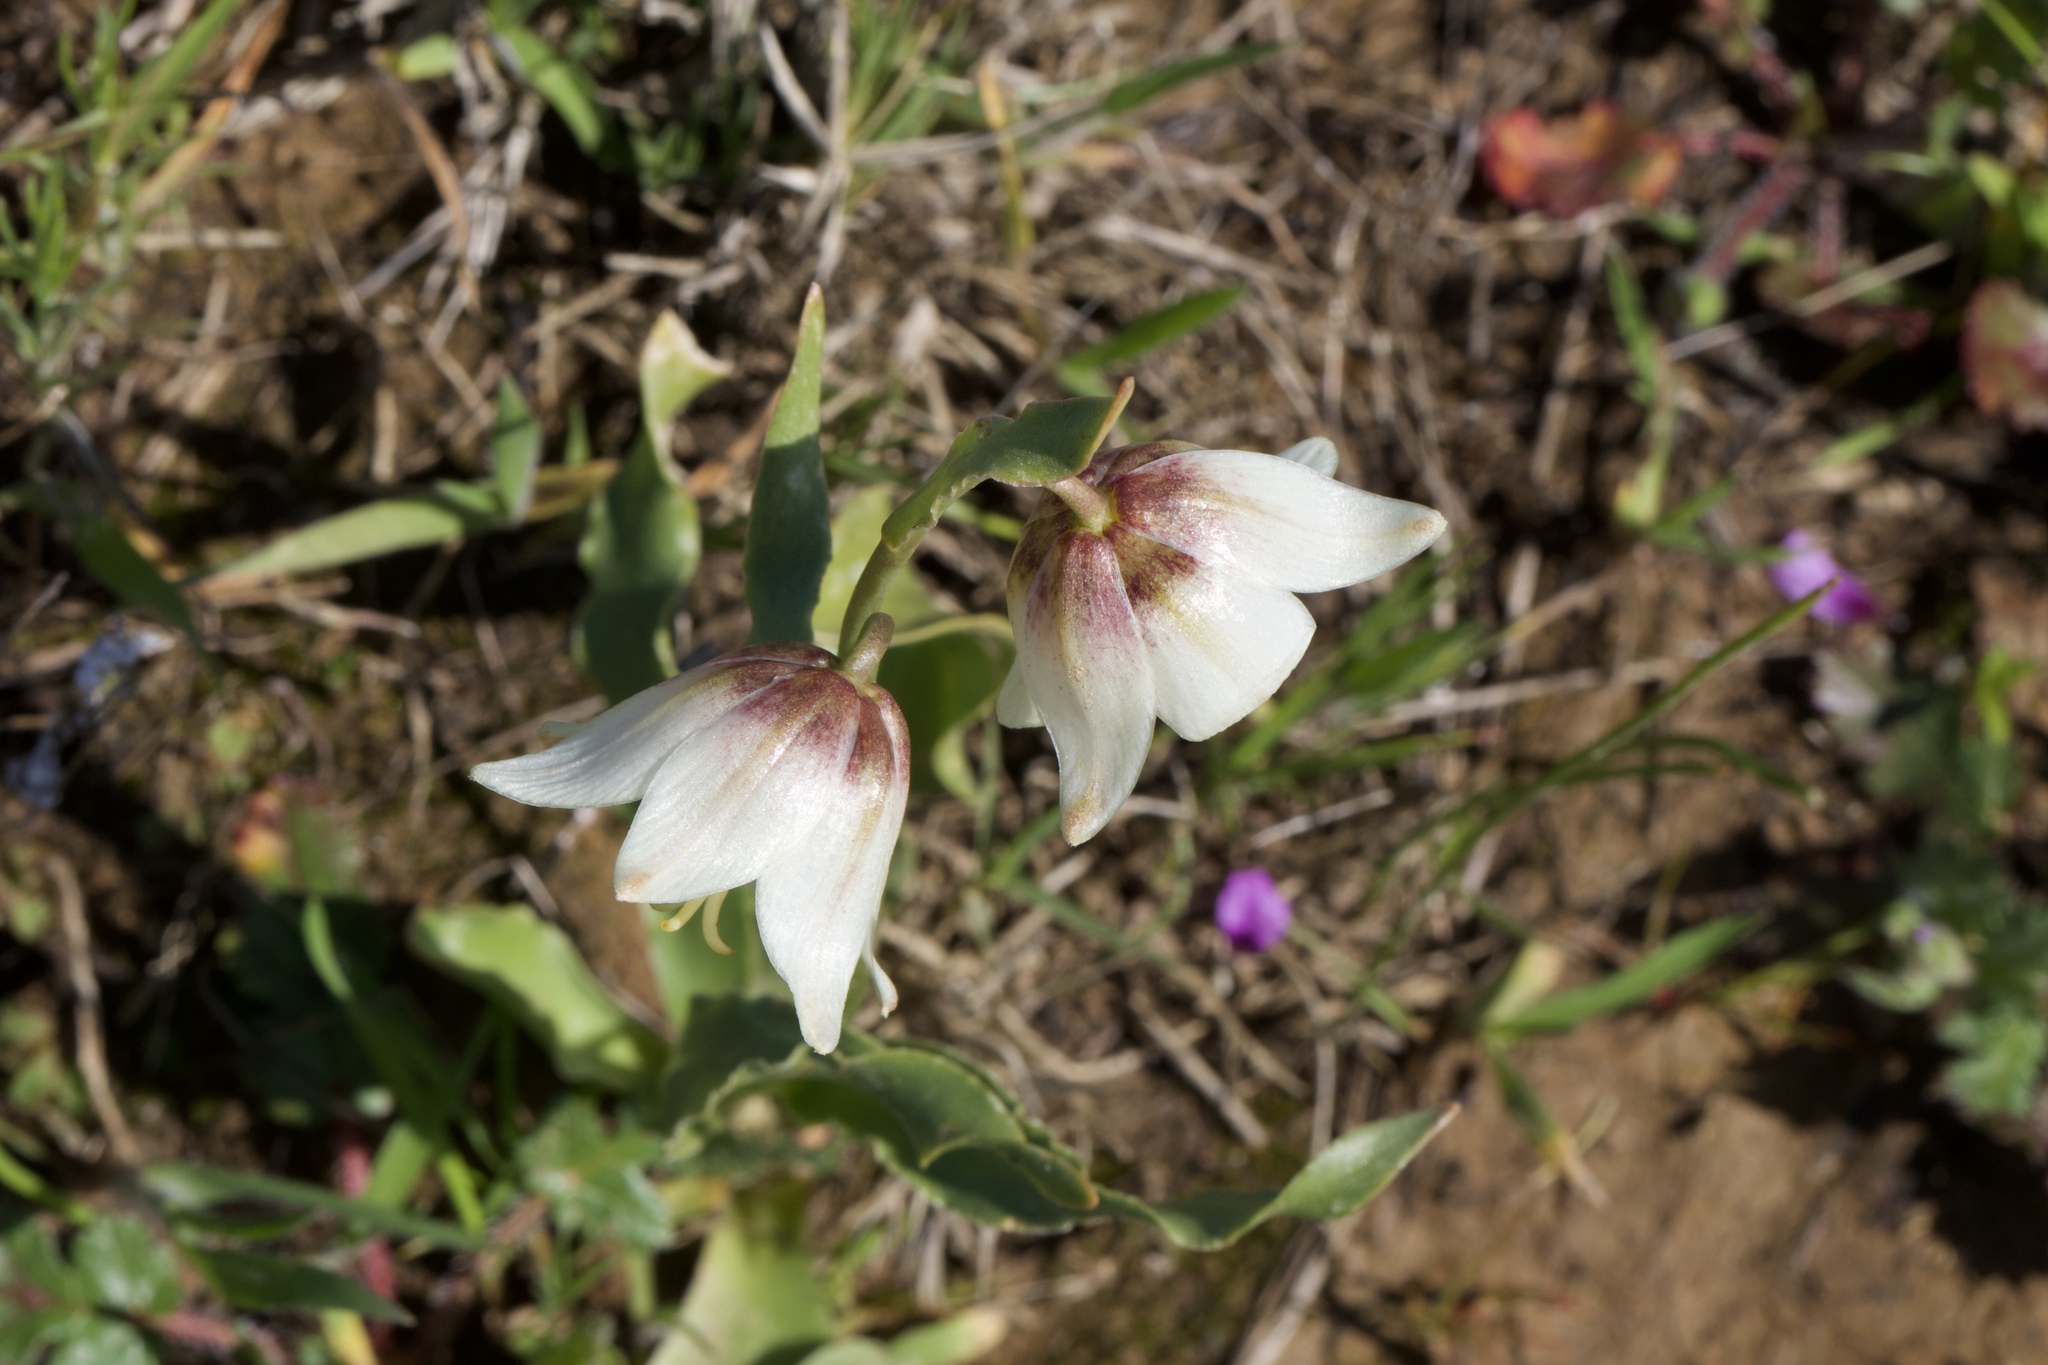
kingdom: Plantae
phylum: Tracheophyta
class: Liliopsida
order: Liliales
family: Liliaceae
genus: Fritillaria
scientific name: Fritillaria liliacea
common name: Fragrant fritillary
